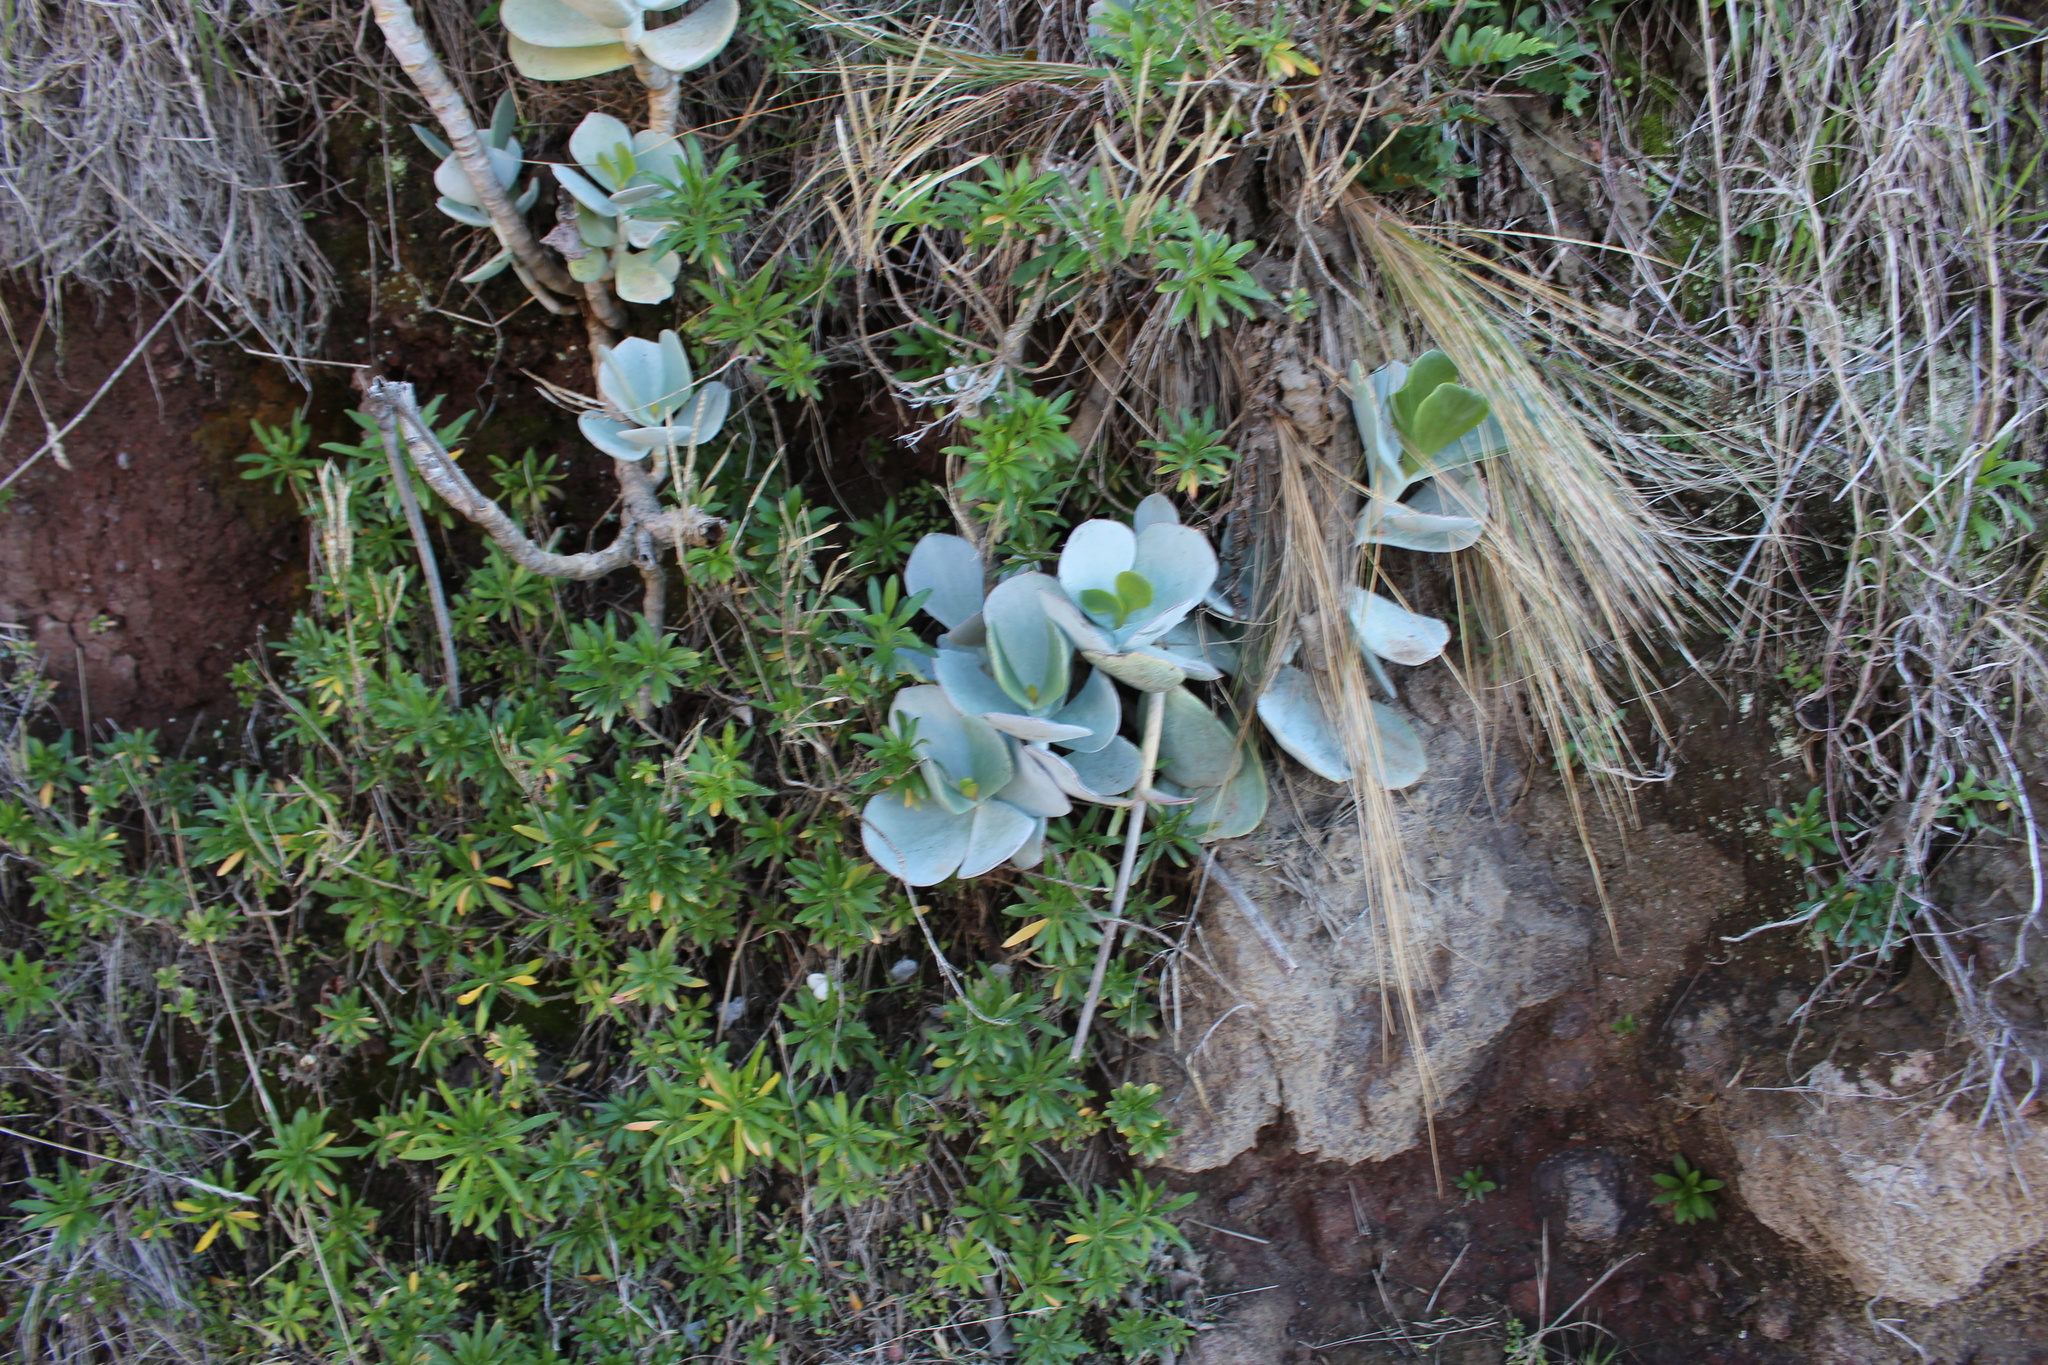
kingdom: Plantae
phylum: Tracheophyta
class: Magnoliopsida
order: Saxifragales
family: Crassulaceae
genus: Cotyledon
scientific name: Cotyledon orbiculata
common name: Pig's ear
